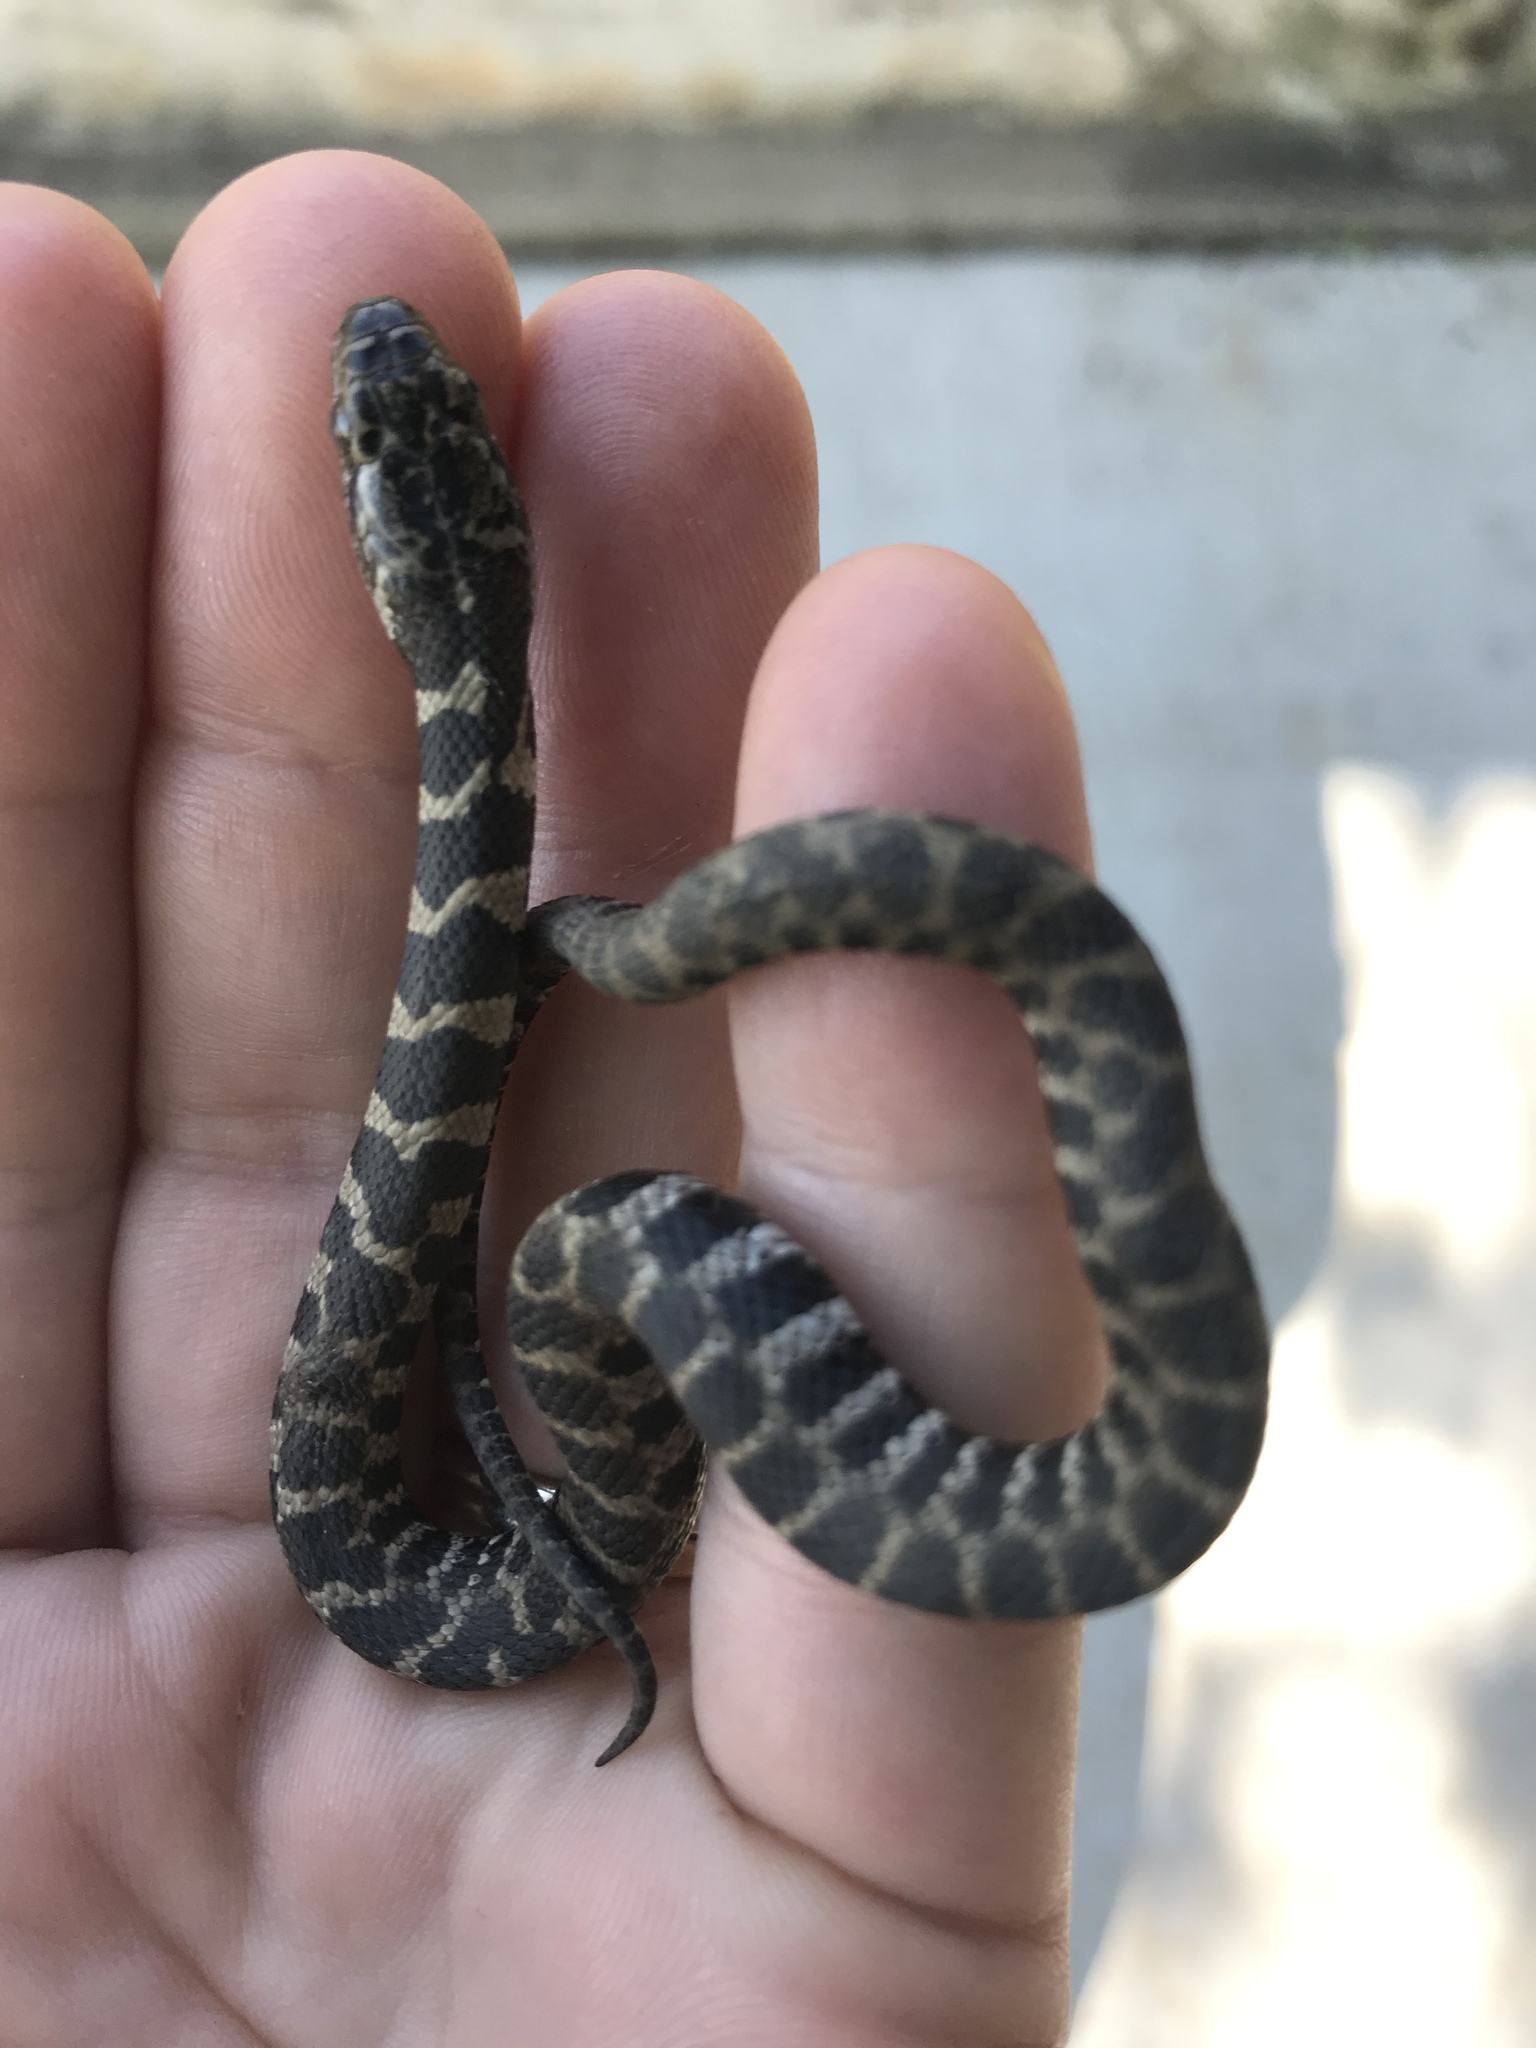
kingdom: Animalia
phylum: Chordata
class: Squamata
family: Colubridae
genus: Nerodia
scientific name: Nerodia sipedon
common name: Northern water snake
